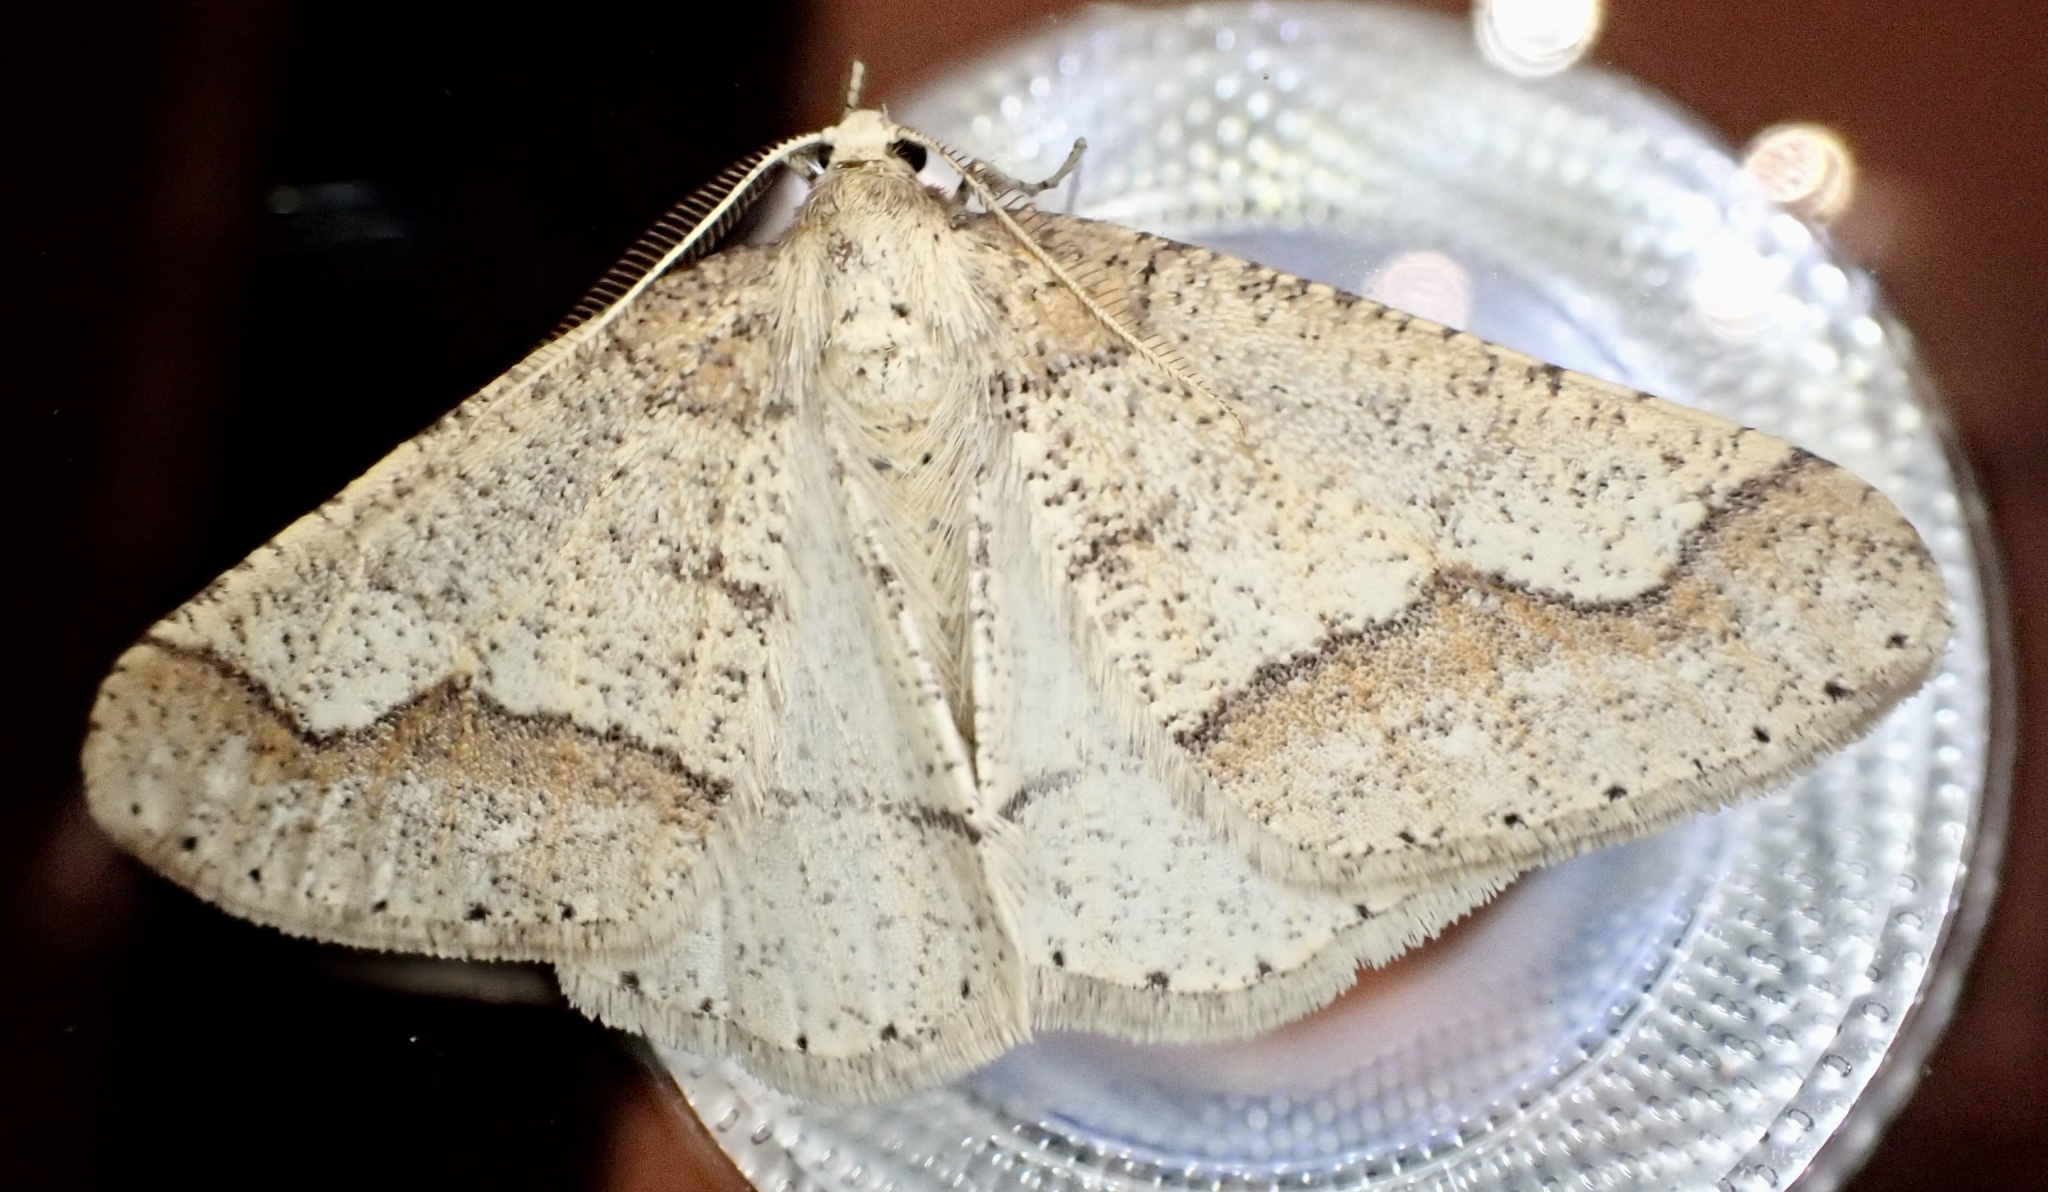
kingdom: Animalia
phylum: Arthropoda
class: Insecta
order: Lepidoptera
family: Geometridae
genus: Agriopis
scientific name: Agriopis marginaria
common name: Dotted border
